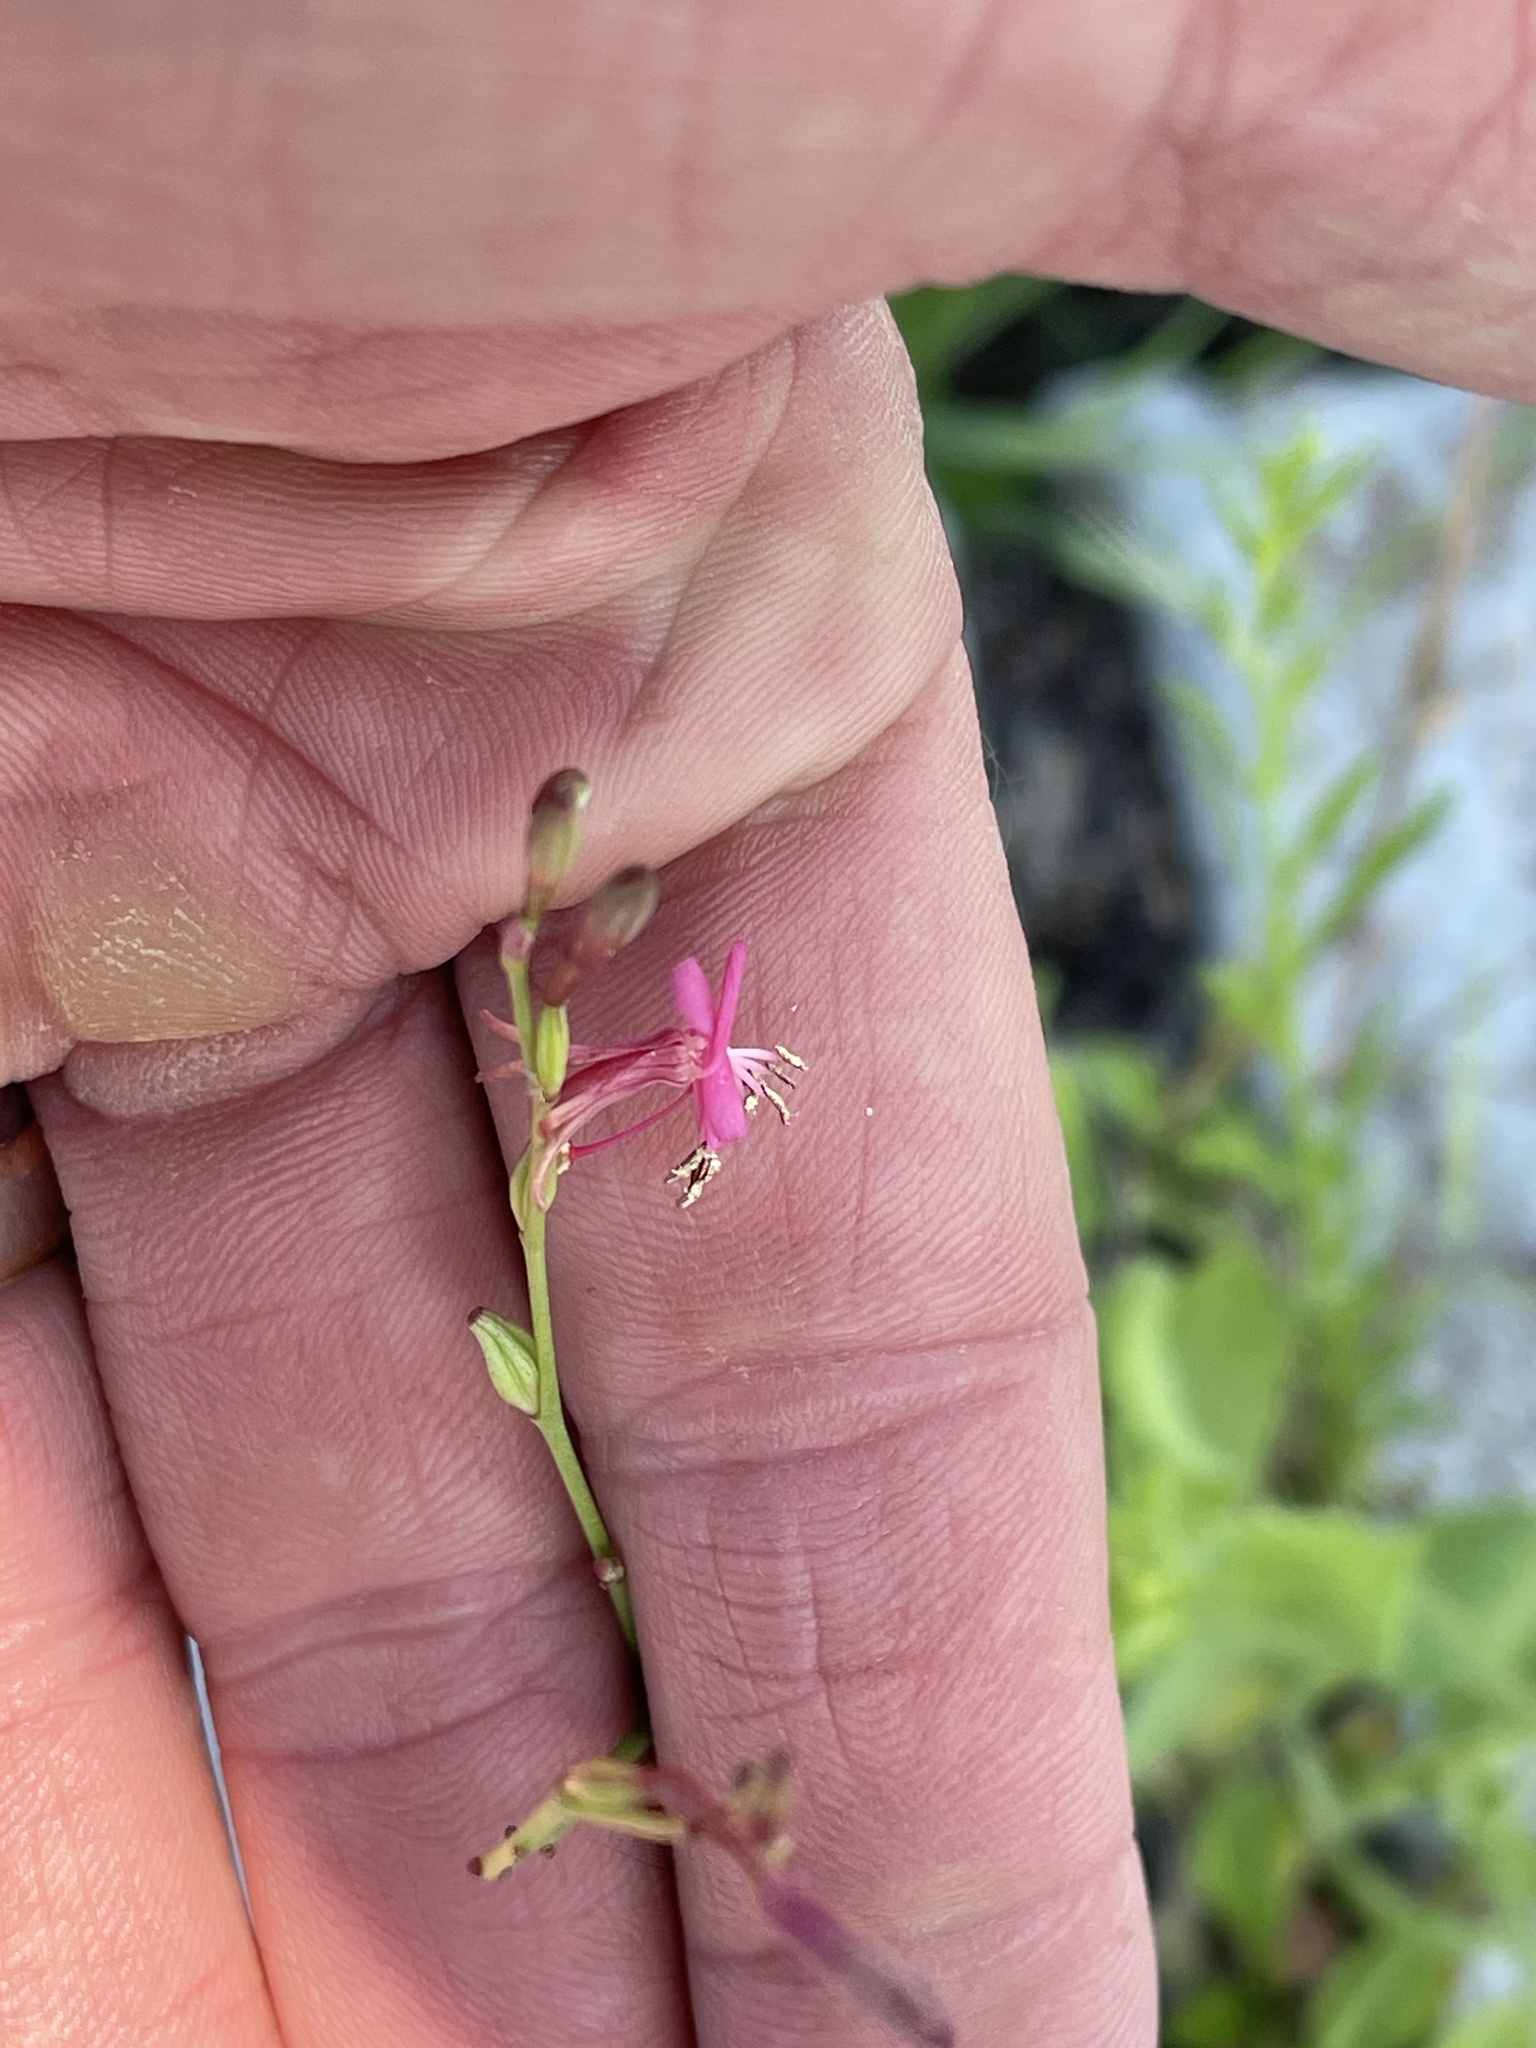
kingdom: Plantae
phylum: Tracheophyta
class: Magnoliopsida
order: Myrtales
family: Onagraceae
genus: Oenothera
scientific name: Oenothera suffrutescens
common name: Scarlet beeblossom
